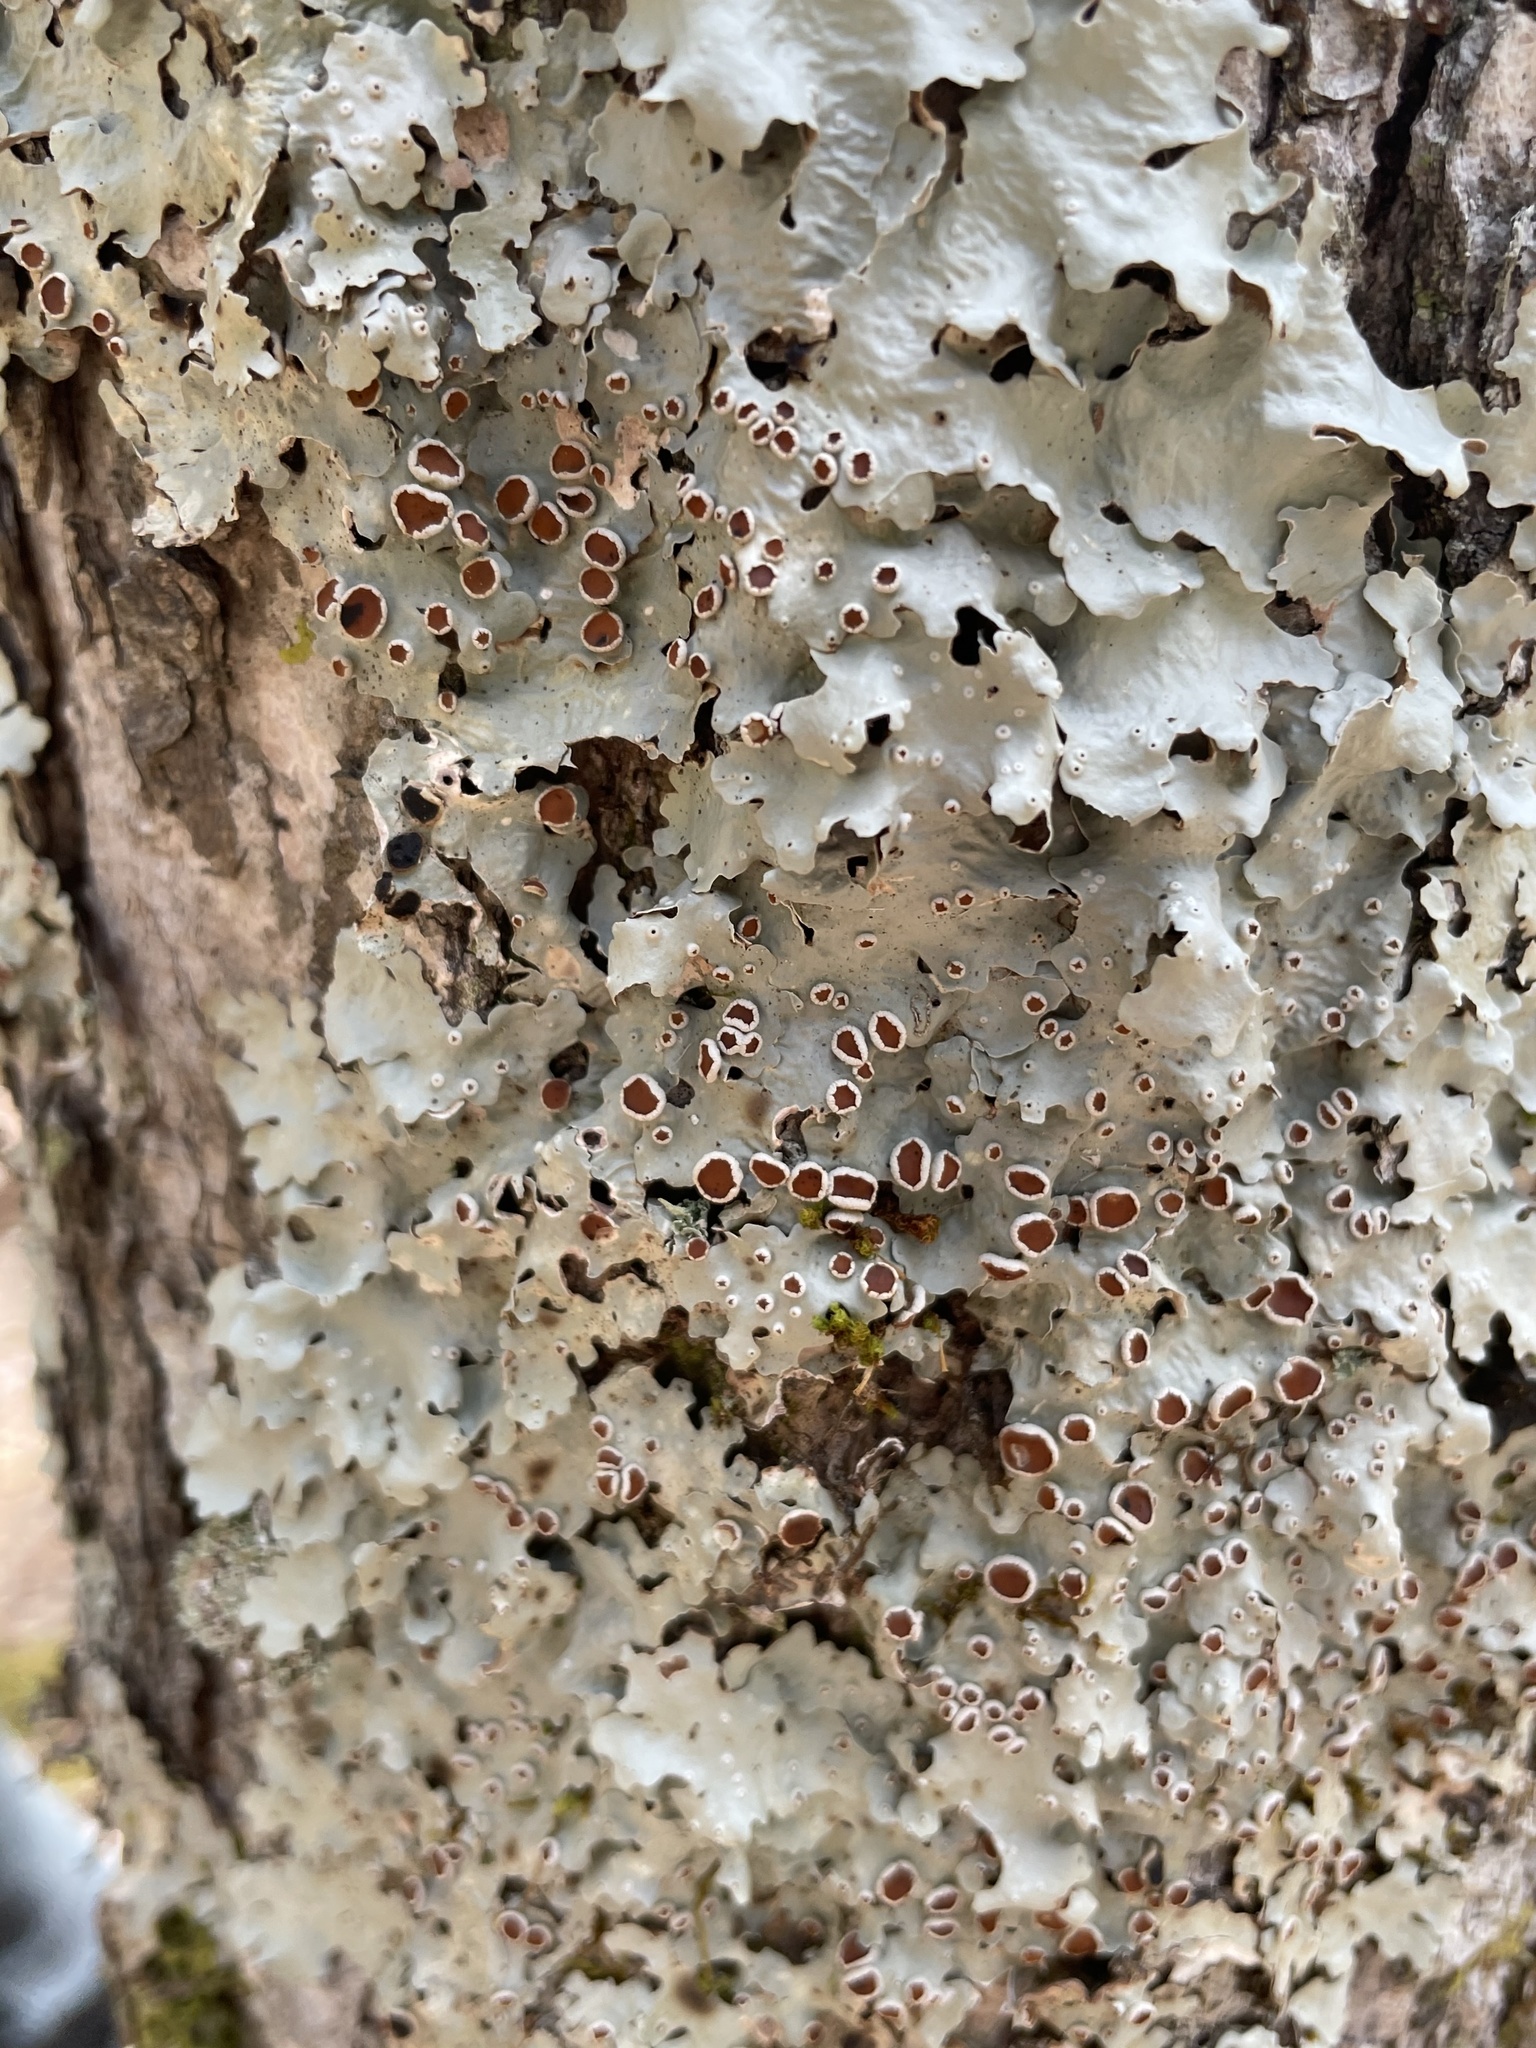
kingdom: Fungi
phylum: Ascomycota
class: Lecanoromycetes
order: Peltigerales
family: Lobariaceae
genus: Ricasolia
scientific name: Ricasolia quercizans
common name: Smooth lungwort
